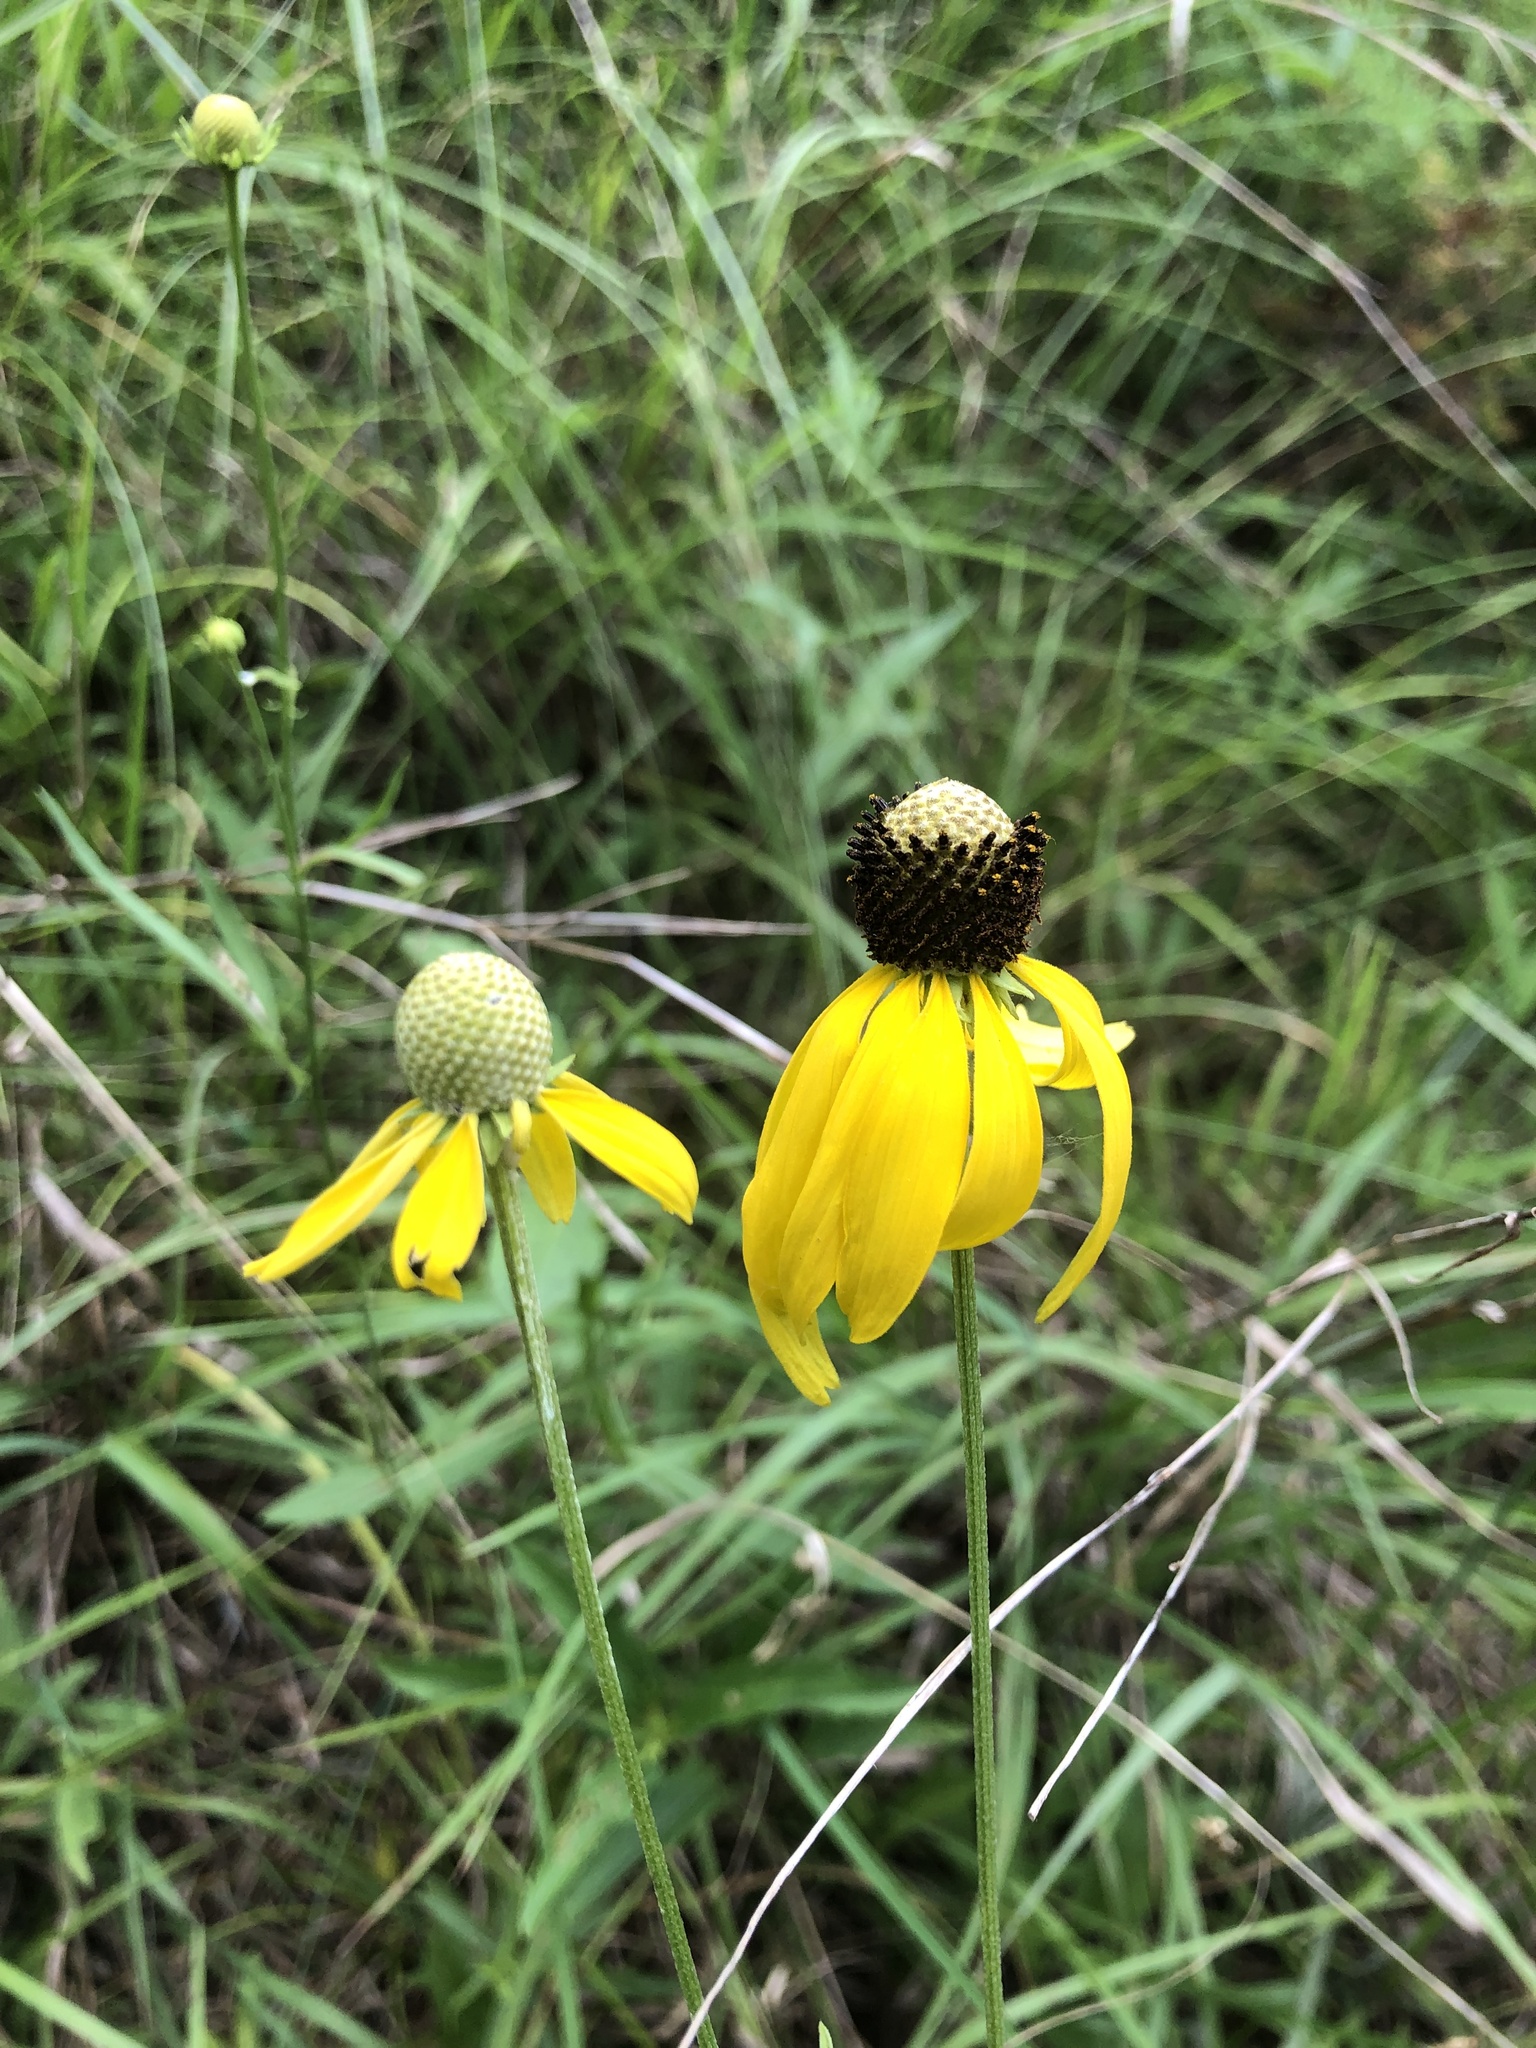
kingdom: Plantae
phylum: Tracheophyta
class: Magnoliopsida
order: Asterales
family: Asteraceae
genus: Ratibida
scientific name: Ratibida pinnata
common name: Drooping prairie-coneflower
